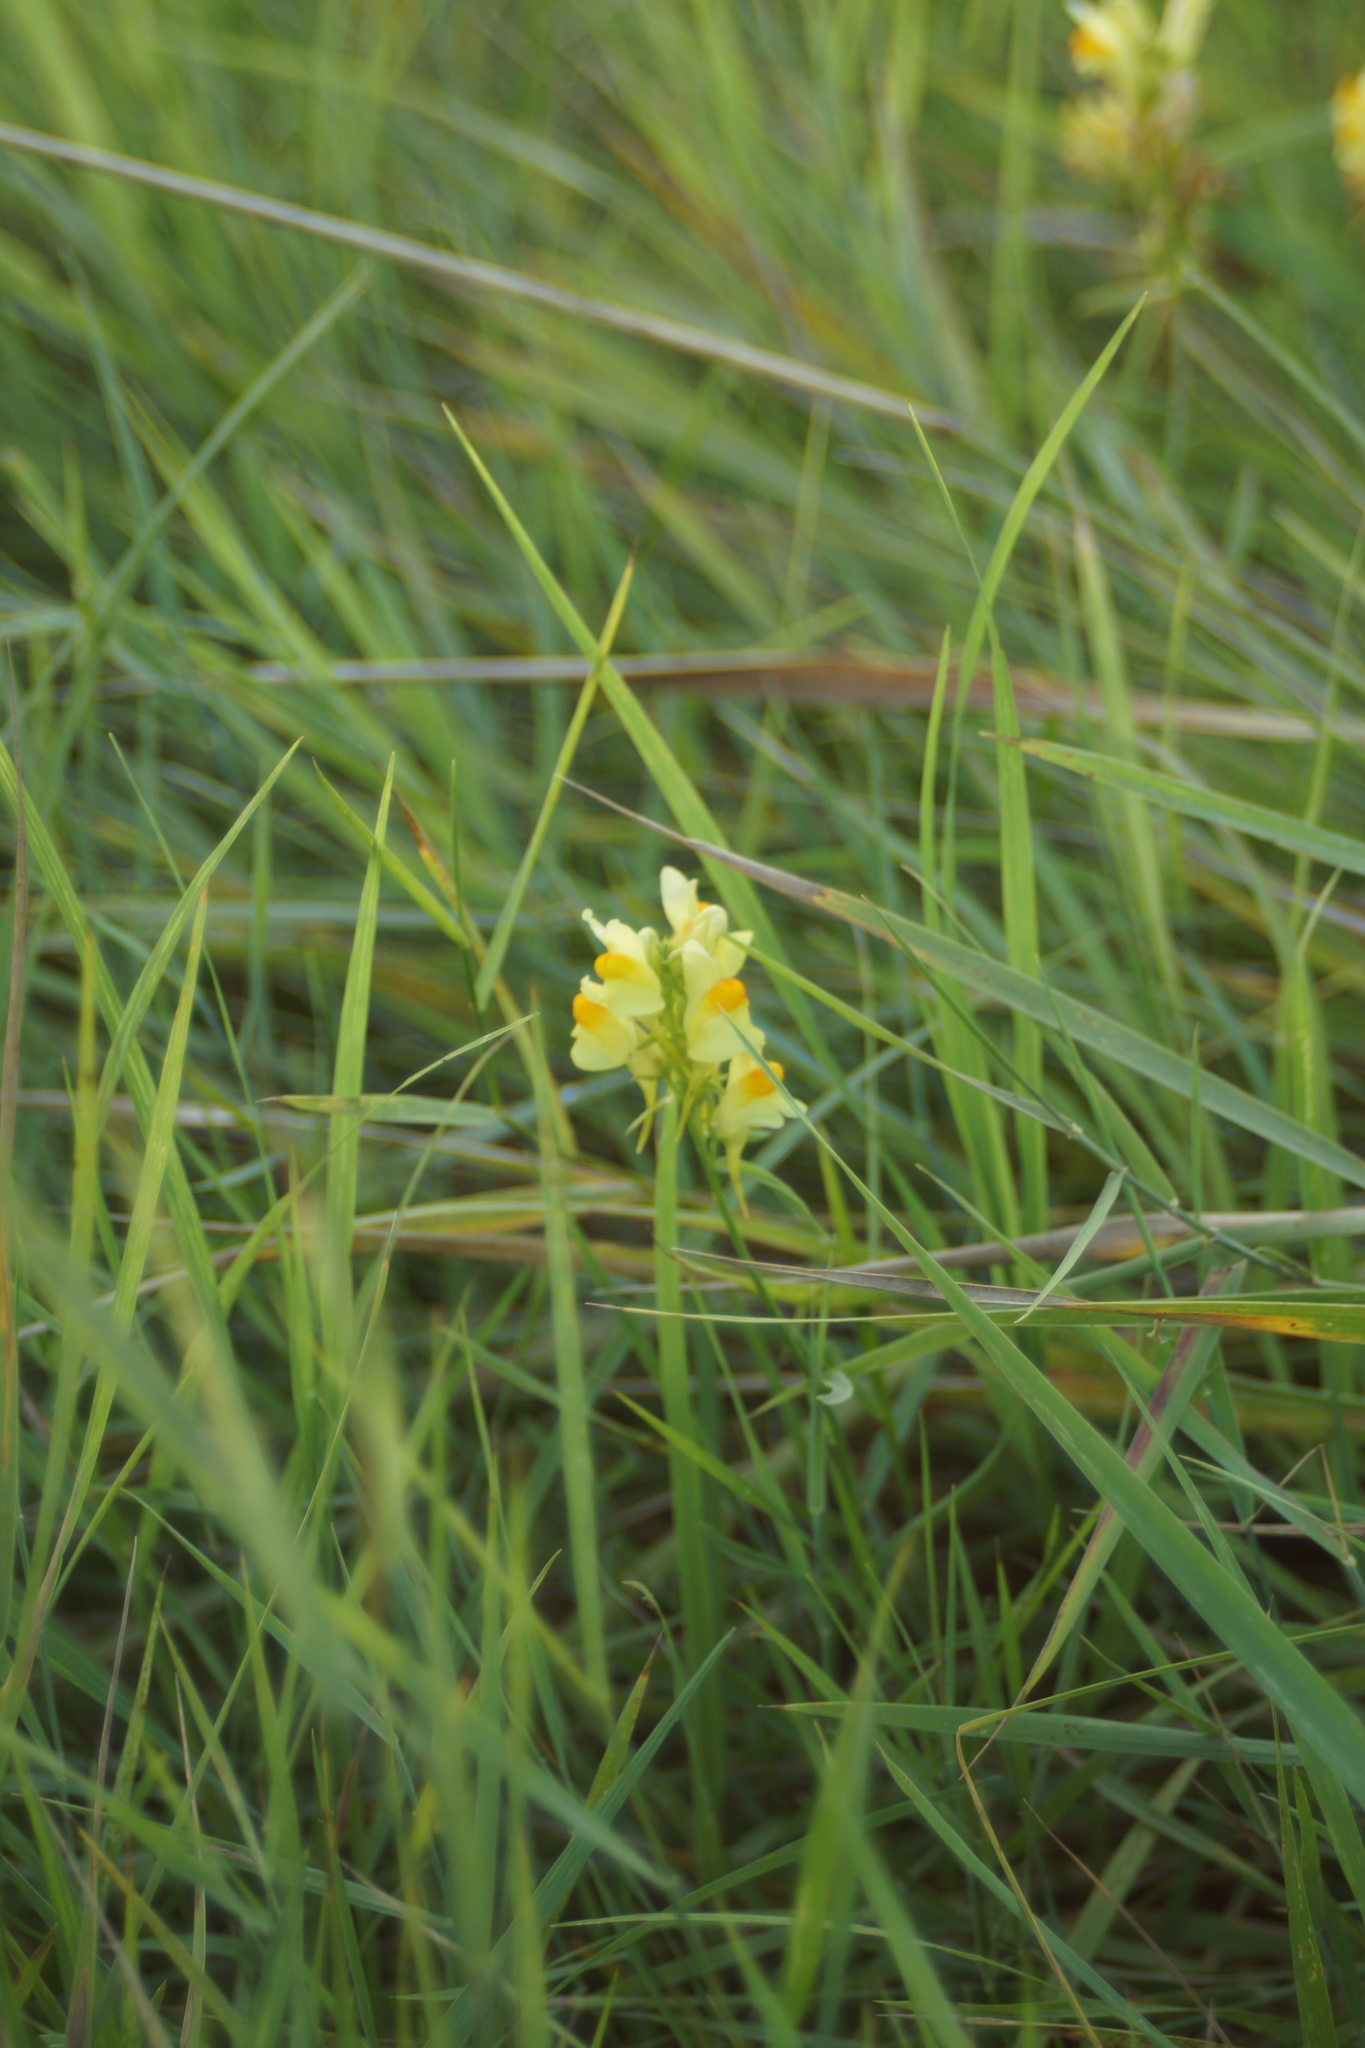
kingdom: Plantae
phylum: Tracheophyta
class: Magnoliopsida
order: Lamiales
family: Plantaginaceae
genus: Linaria
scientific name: Linaria vulgaris
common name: Butter and eggs
